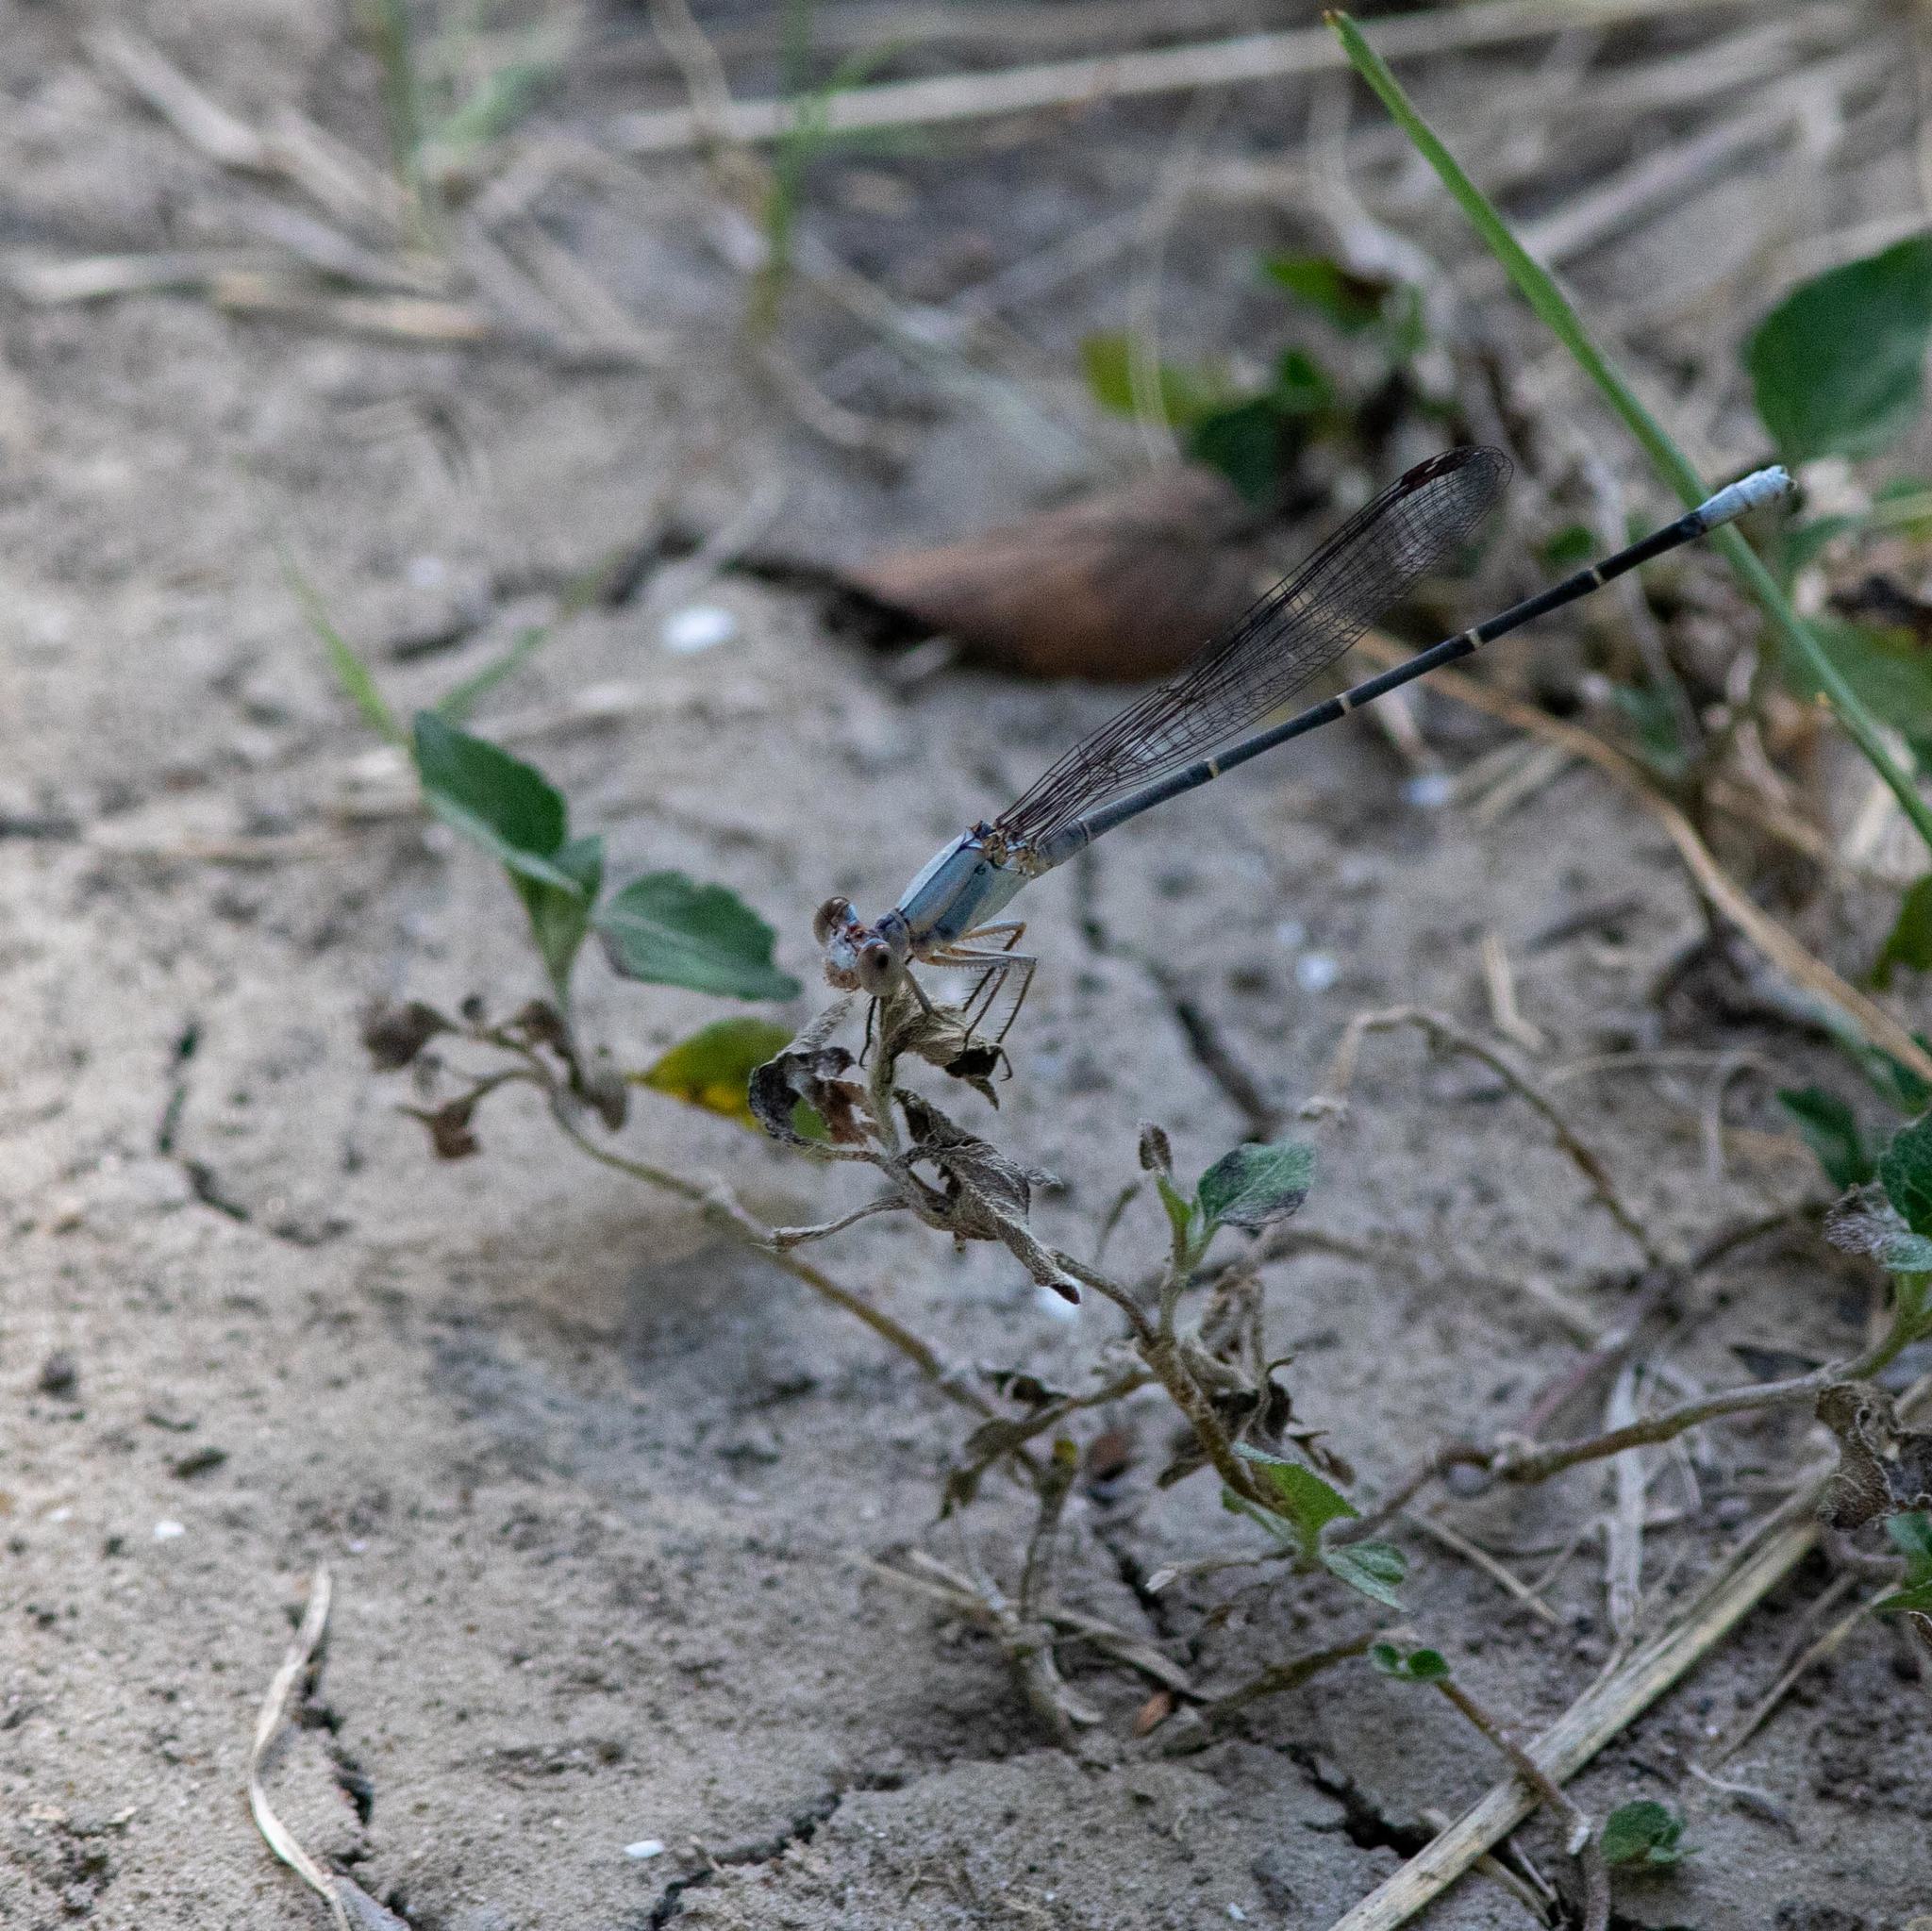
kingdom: Animalia
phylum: Arthropoda
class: Insecta
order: Odonata
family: Coenagrionidae
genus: Argia
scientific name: Argia moesta
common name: Powdered dancer
